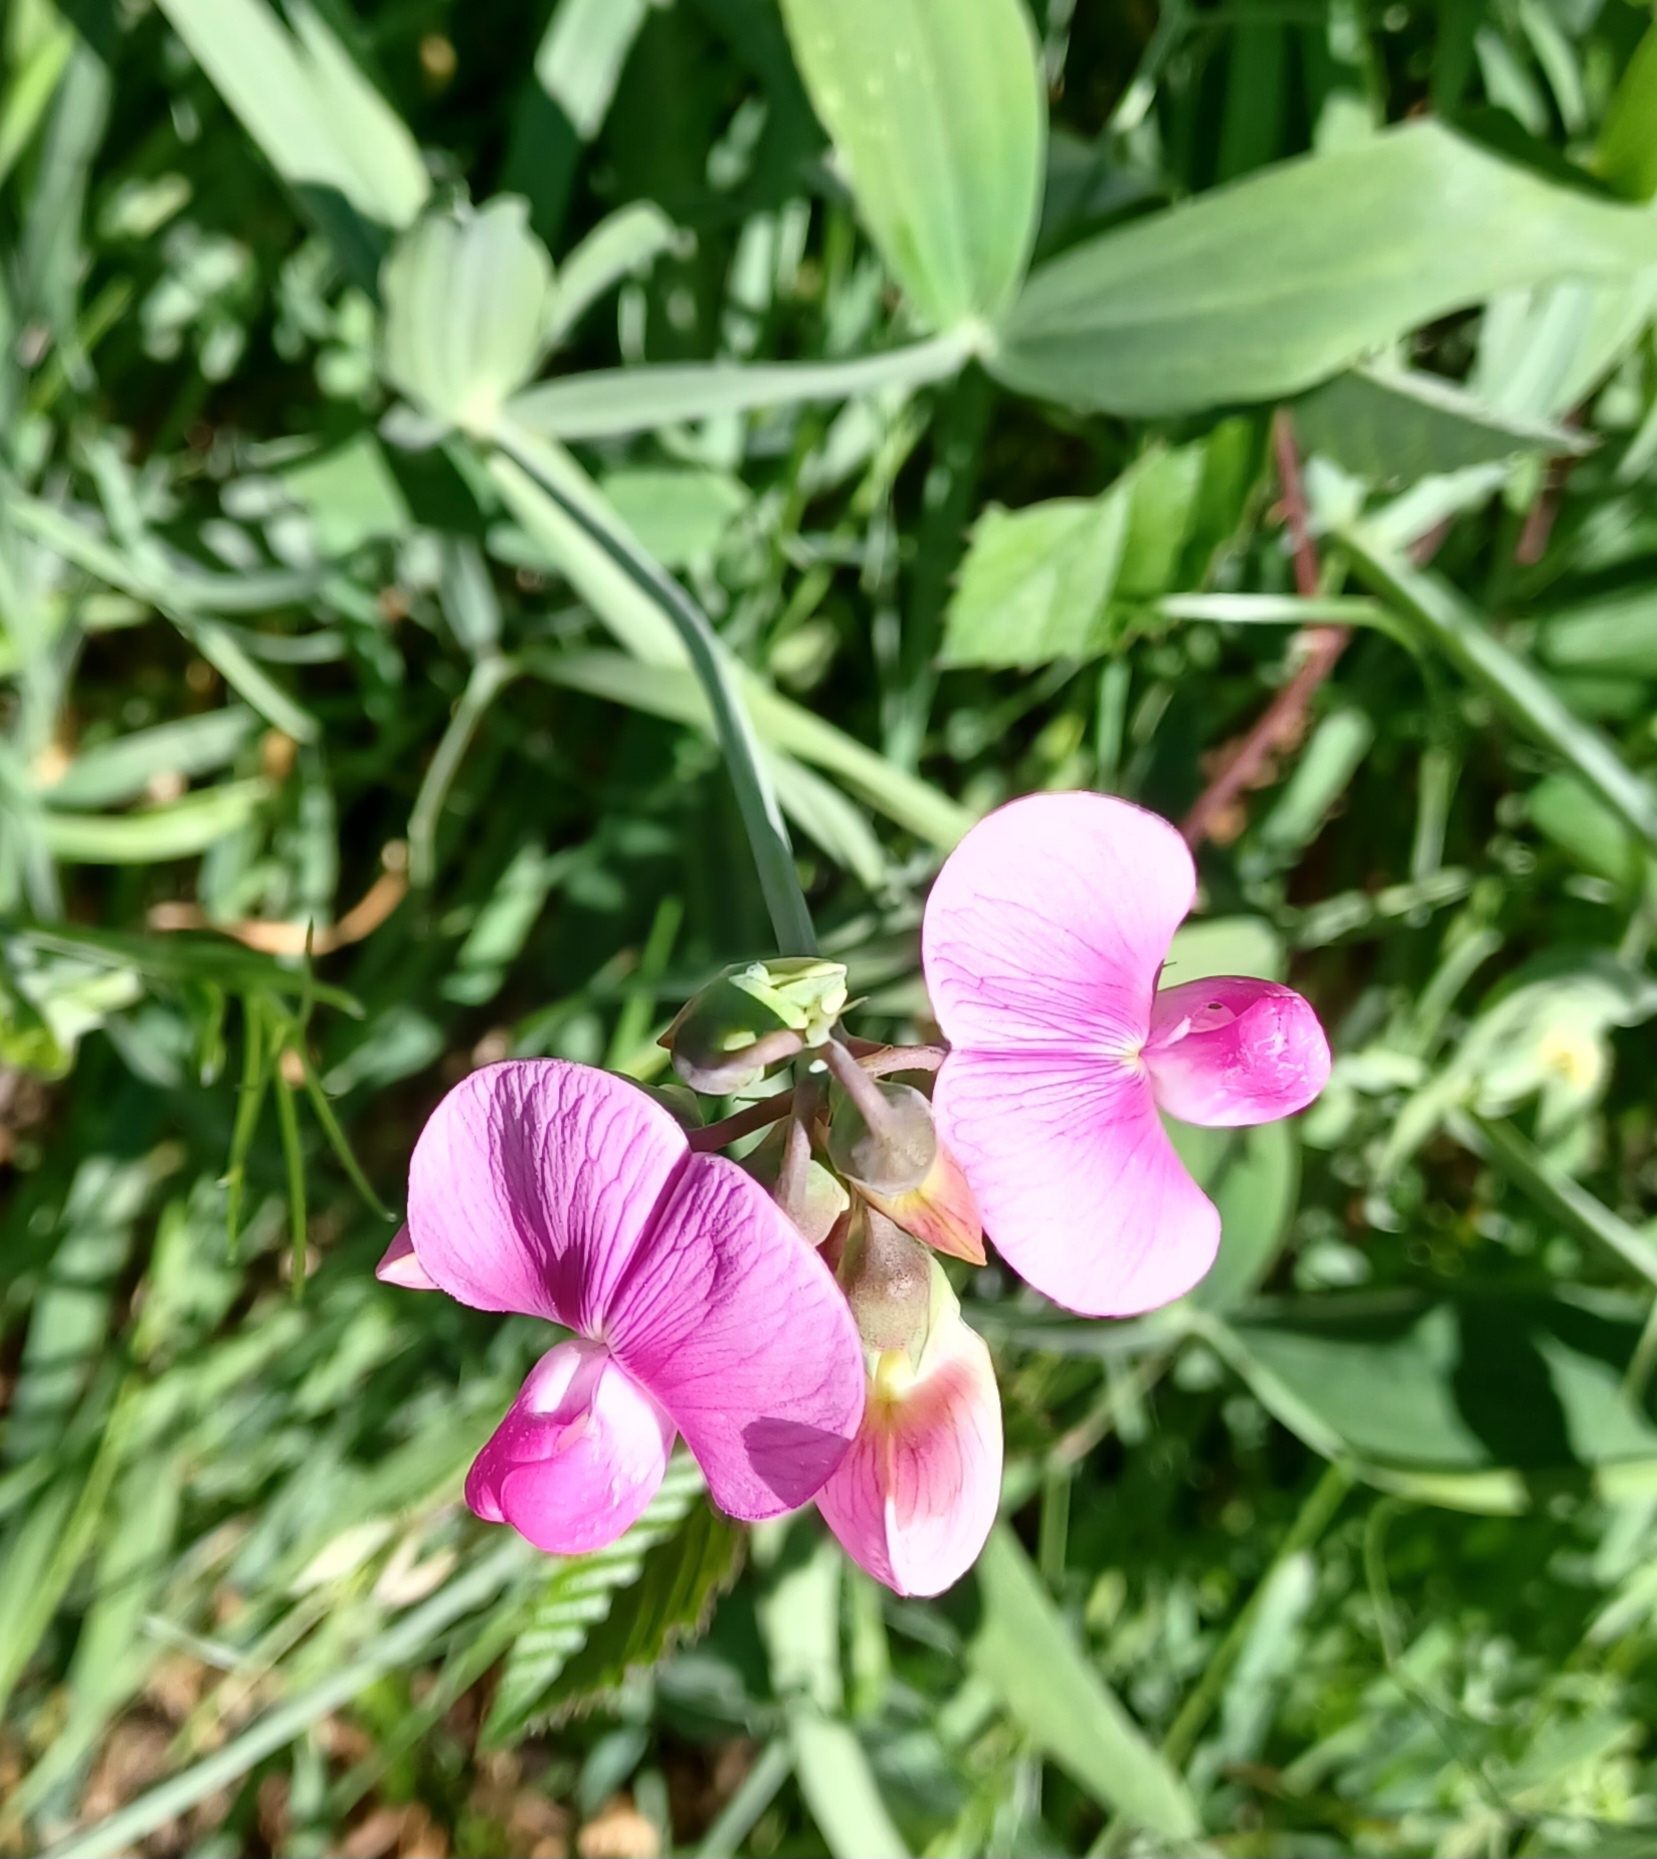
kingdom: Plantae
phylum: Tracheophyta
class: Magnoliopsida
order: Fabales
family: Fabaceae
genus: Lathyrus
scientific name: Lathyrus latifolius
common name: Perennial pea
